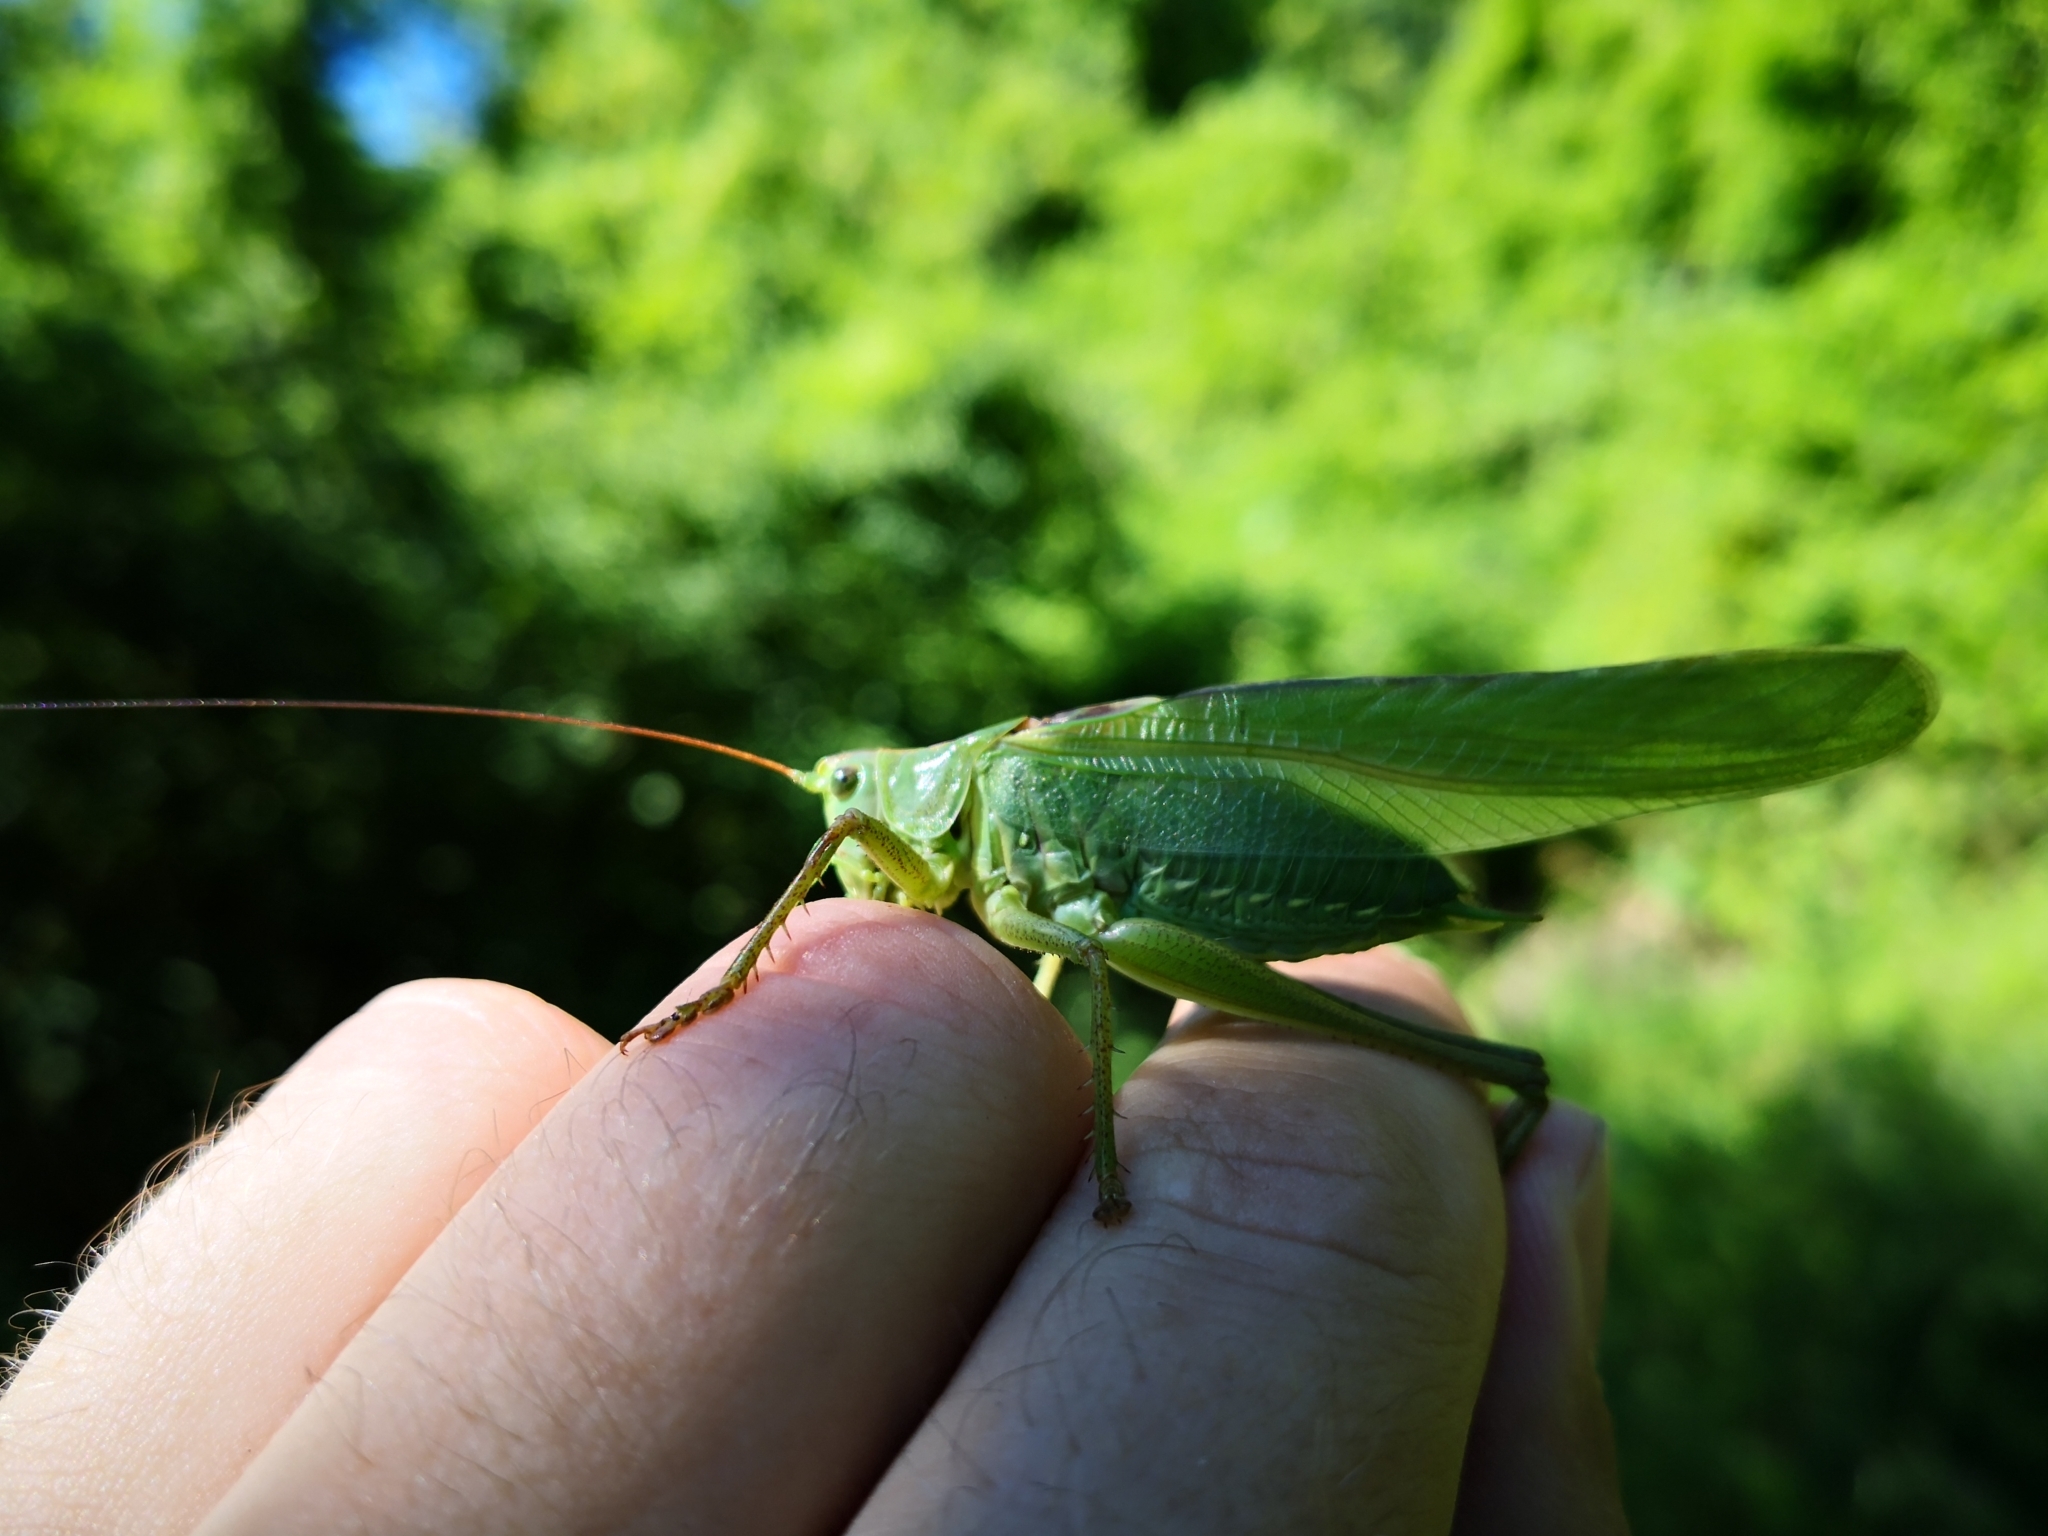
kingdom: Animalia
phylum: Arthropoda
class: Insecta
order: Orthoptera
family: Tettigoniidae
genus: Tettigonia
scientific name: Tettigonia viridissima
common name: Great green bush-cricket
